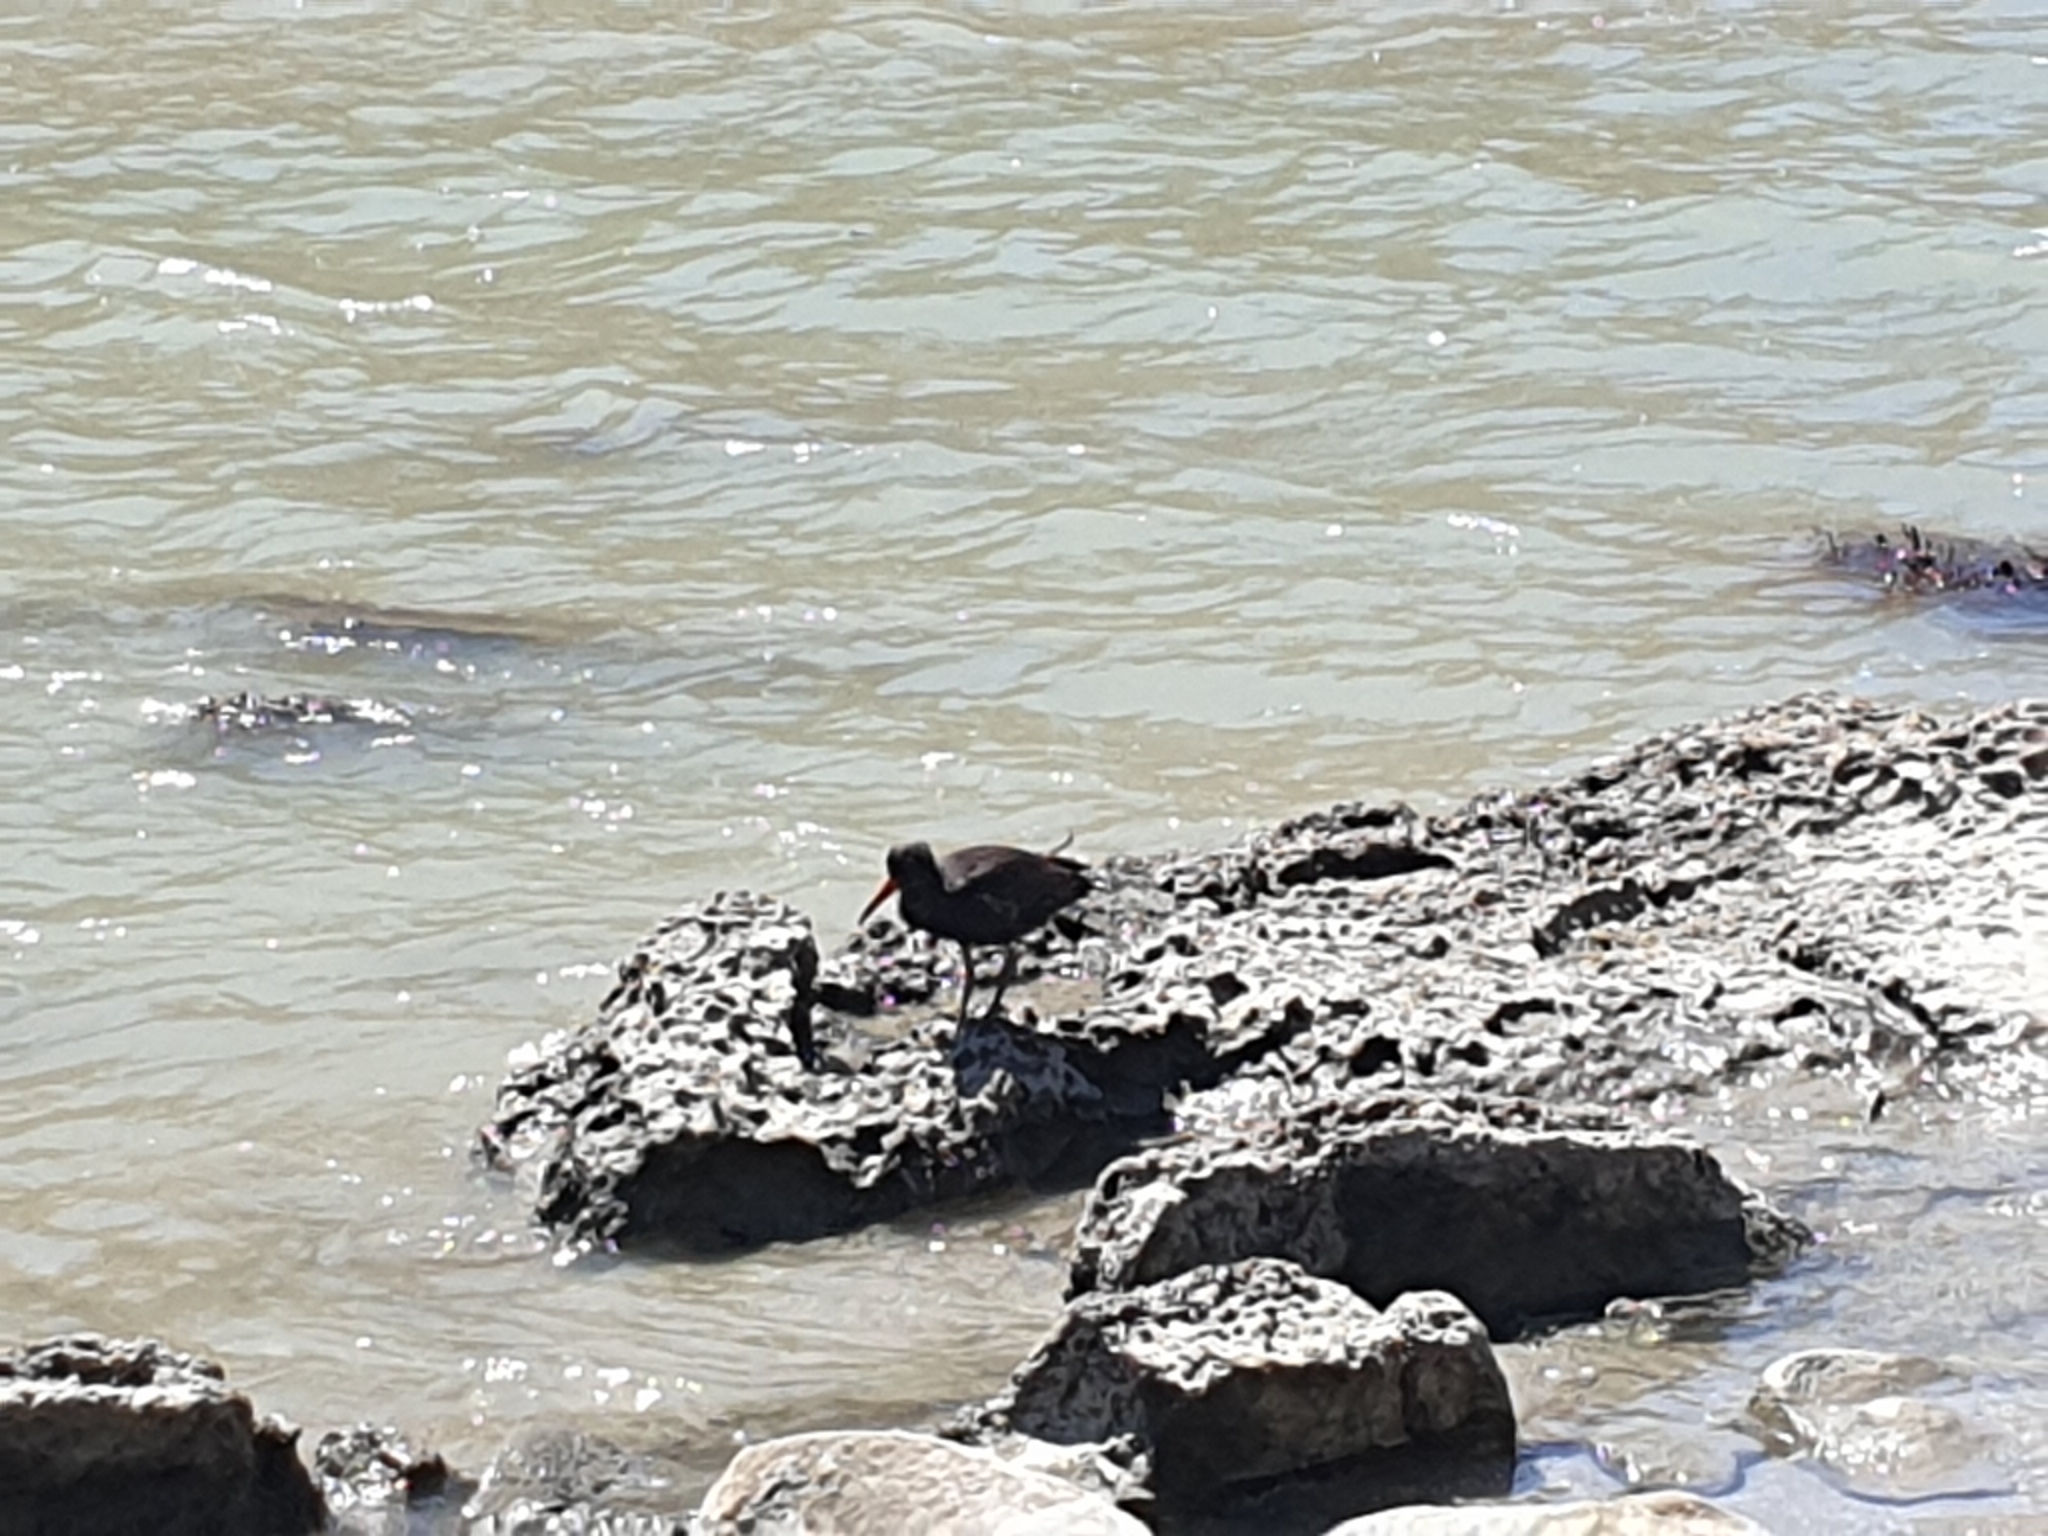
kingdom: Animalia
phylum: Chordata
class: Aves
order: Charadriiformes
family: Haematopodidae
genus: Haematopus
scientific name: Haematopus unicolor
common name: Variable oystercatcher
